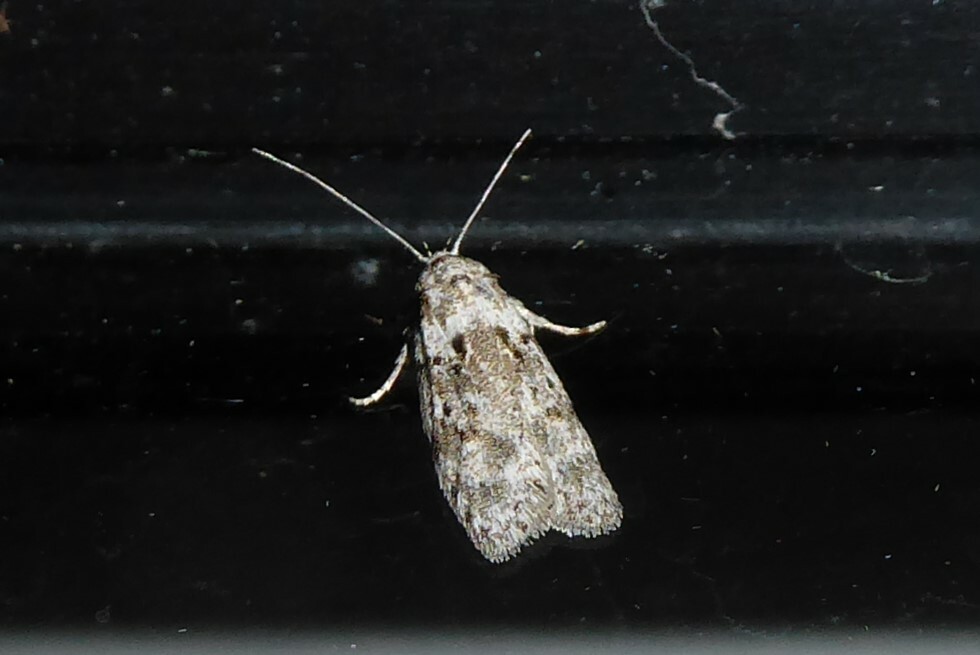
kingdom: Animalia
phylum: Arthropoda
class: Insecta
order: Lepidoptera
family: Oecophoridae
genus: Izatha
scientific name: Izatha convulsella
